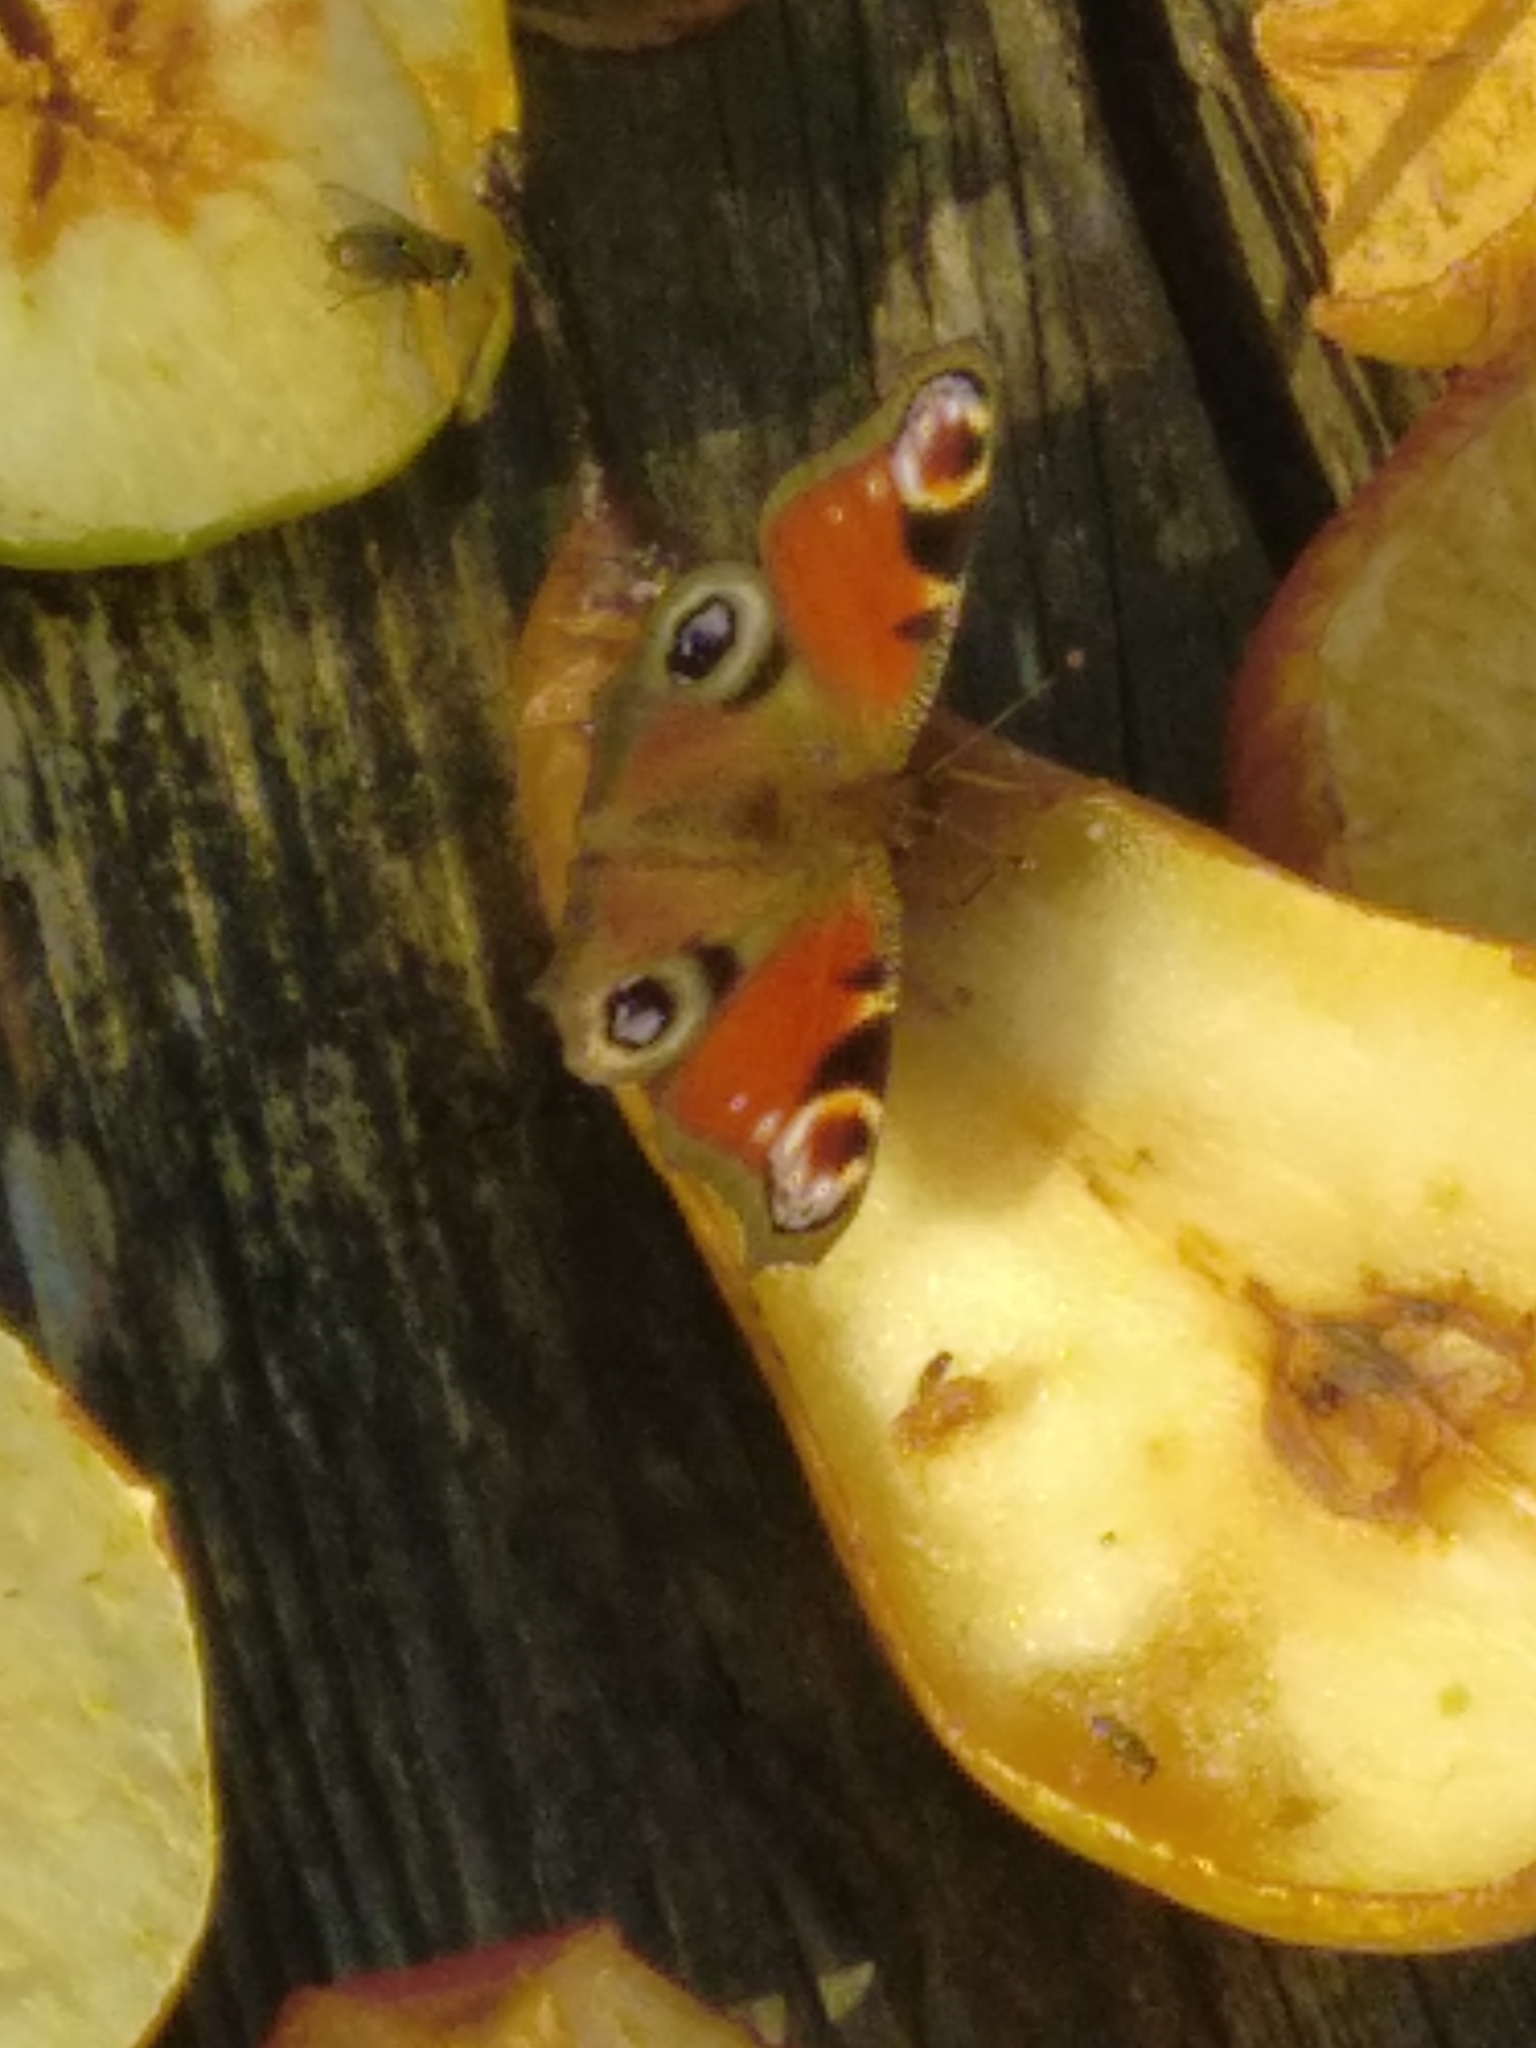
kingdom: Animalia
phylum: Arthropoda
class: Insecta
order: Lepidoptera
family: Nymphalidae
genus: Aglais
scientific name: Aglais io
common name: Peacock
